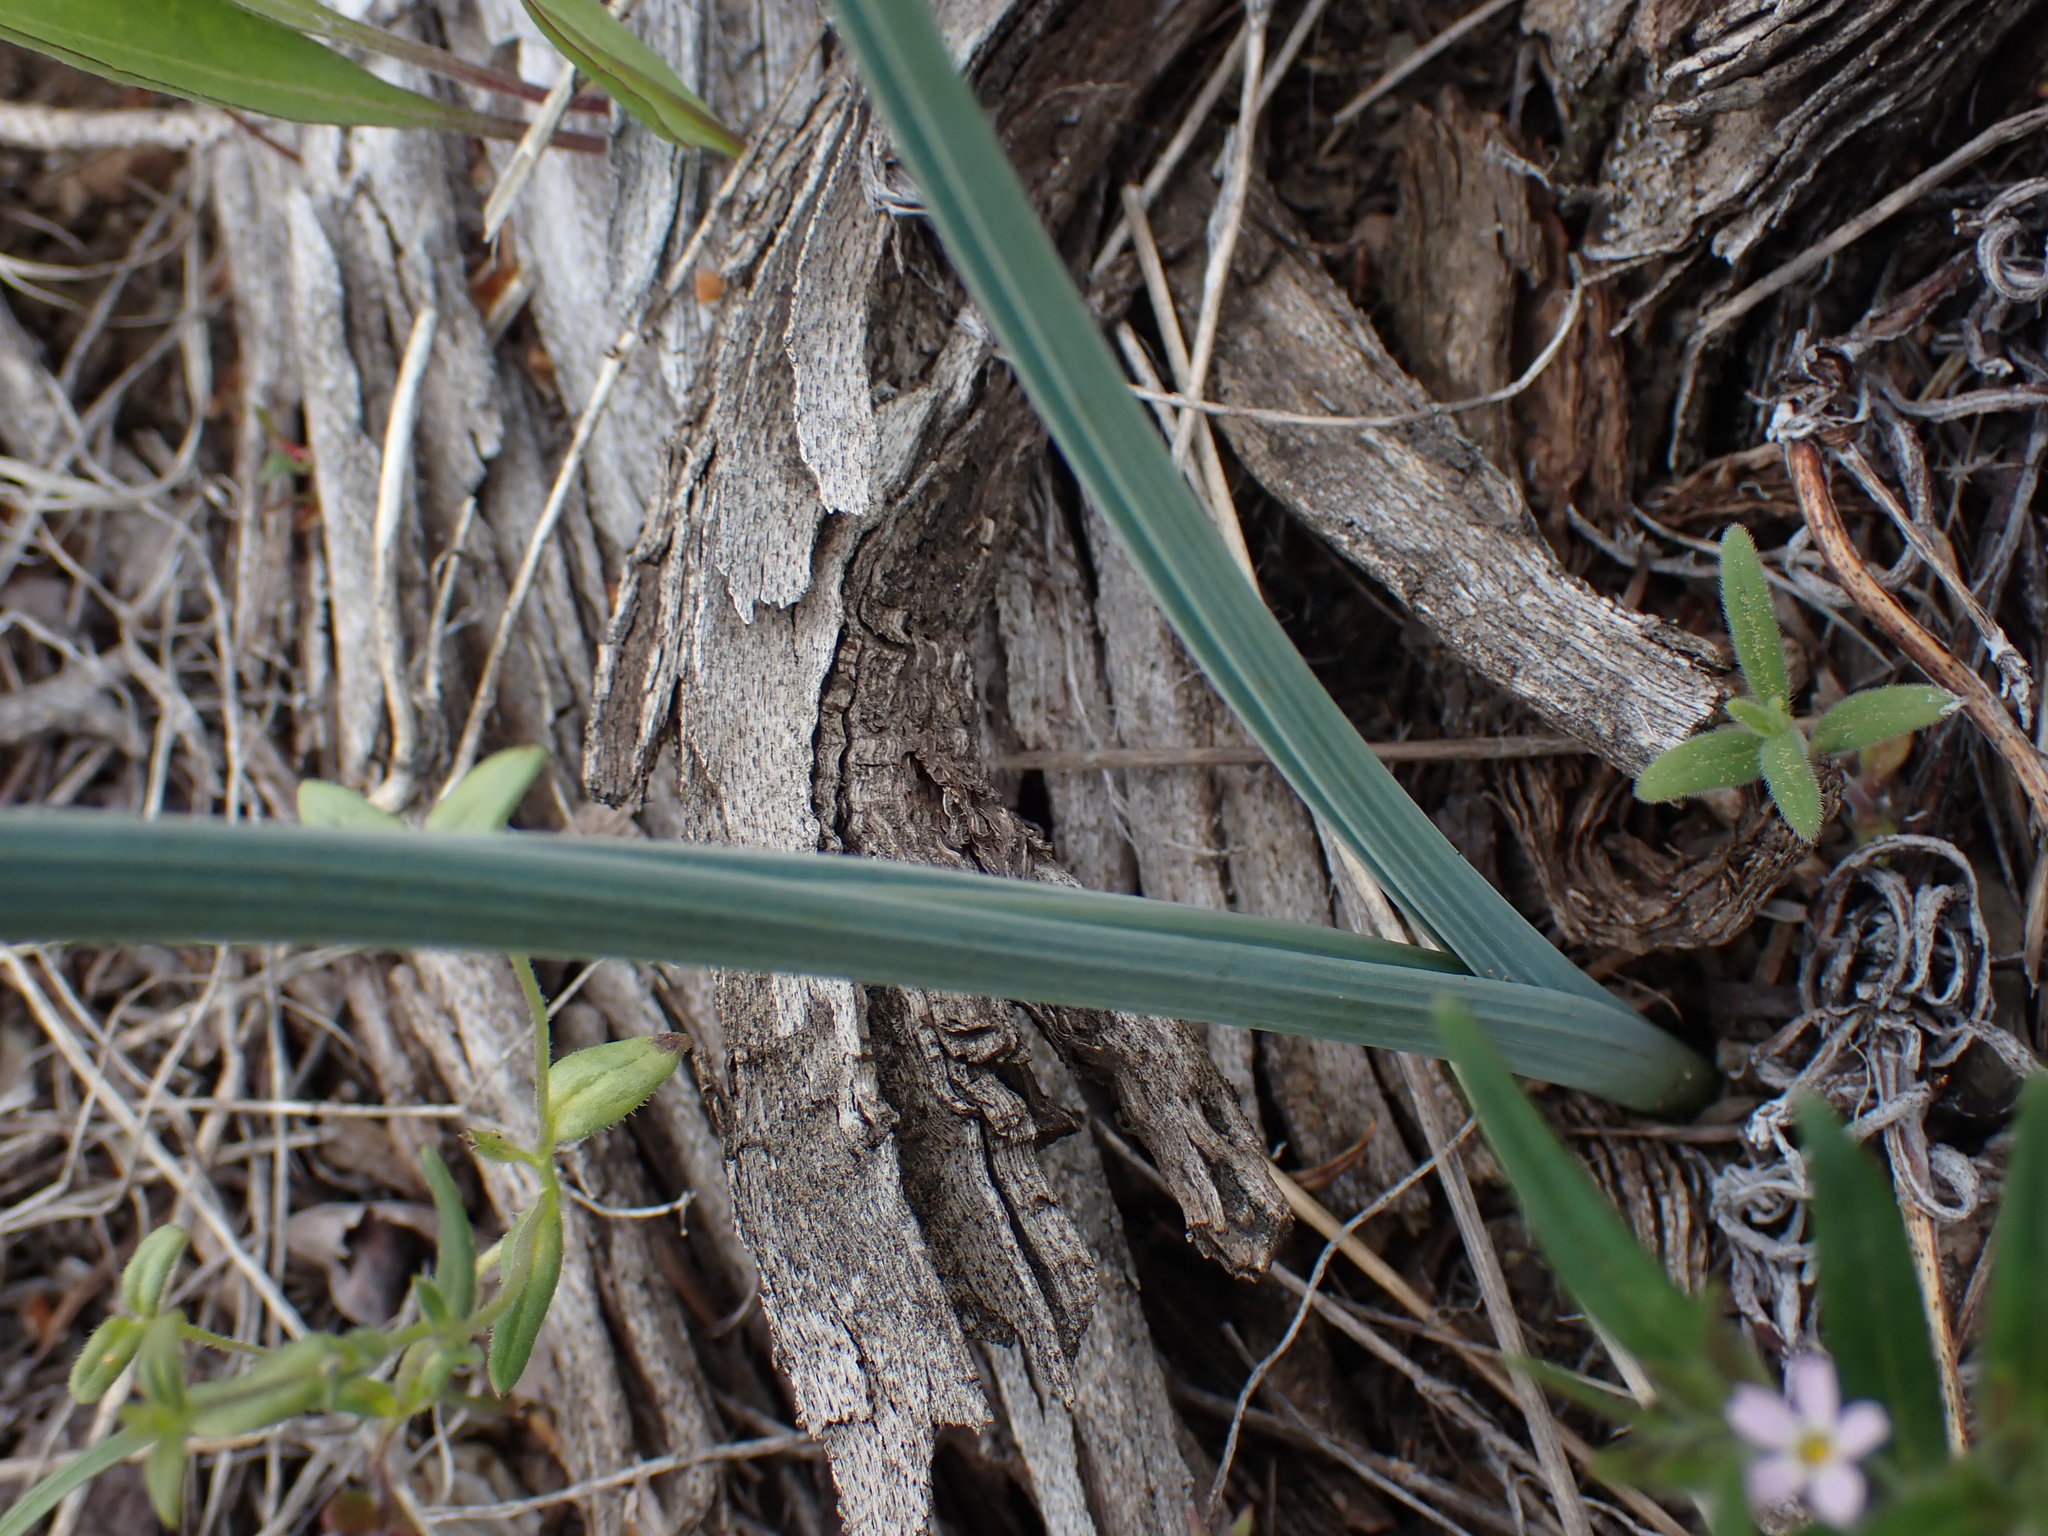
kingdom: Plantae
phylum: Tracheophyta
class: Liliopsida
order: Liliales
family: Liliaceae
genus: Calochortus
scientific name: Calochortus macrocarpus
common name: Green-band mariposa lily
